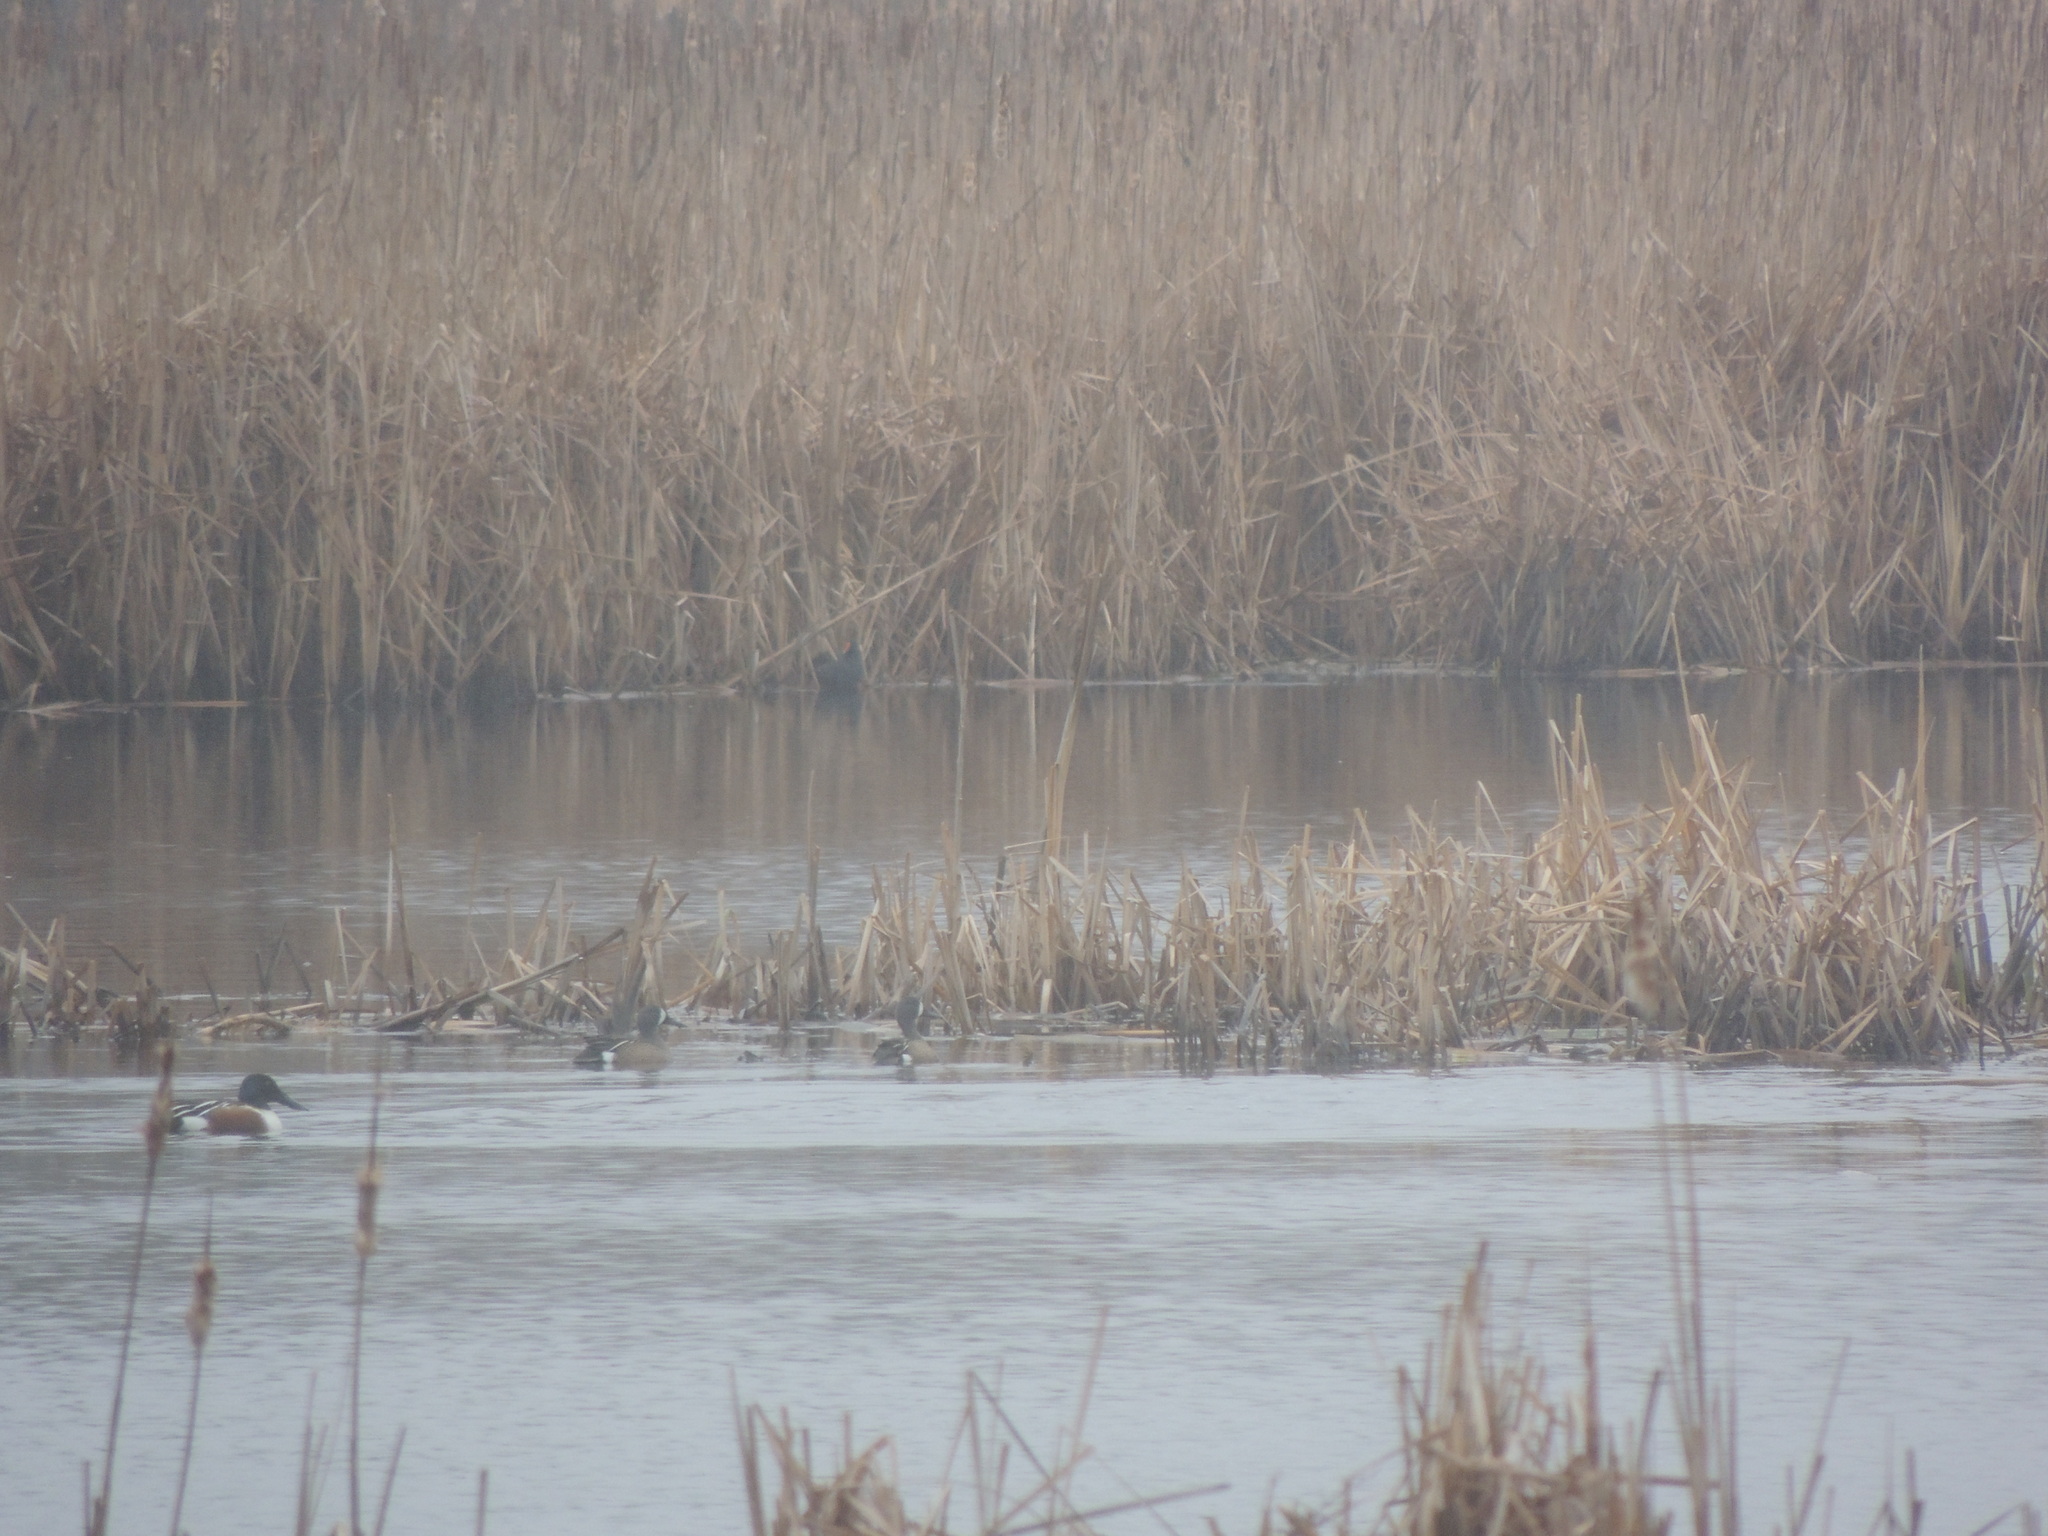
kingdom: Animalia
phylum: Chordata
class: Aves
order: Anseriformes
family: Anatidae
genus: Spatula
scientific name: Spatula discors
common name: Blue-winged teal
